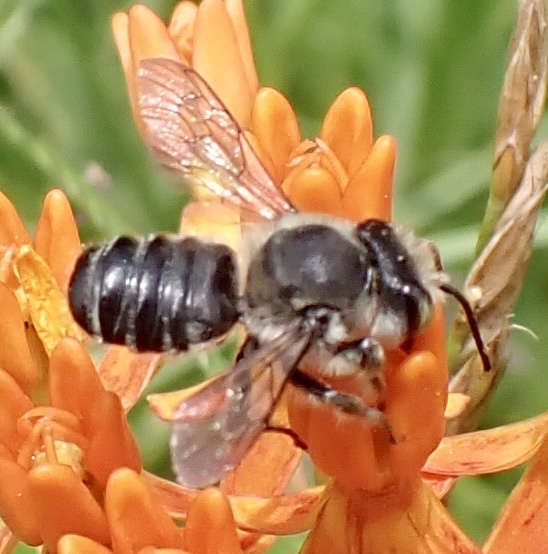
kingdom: Animalia
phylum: Arthropoda
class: Insecta
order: Hymenoptera
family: Megachilidae
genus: Megachile
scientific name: Megachile mendica
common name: Flat-tailed leafcutter
